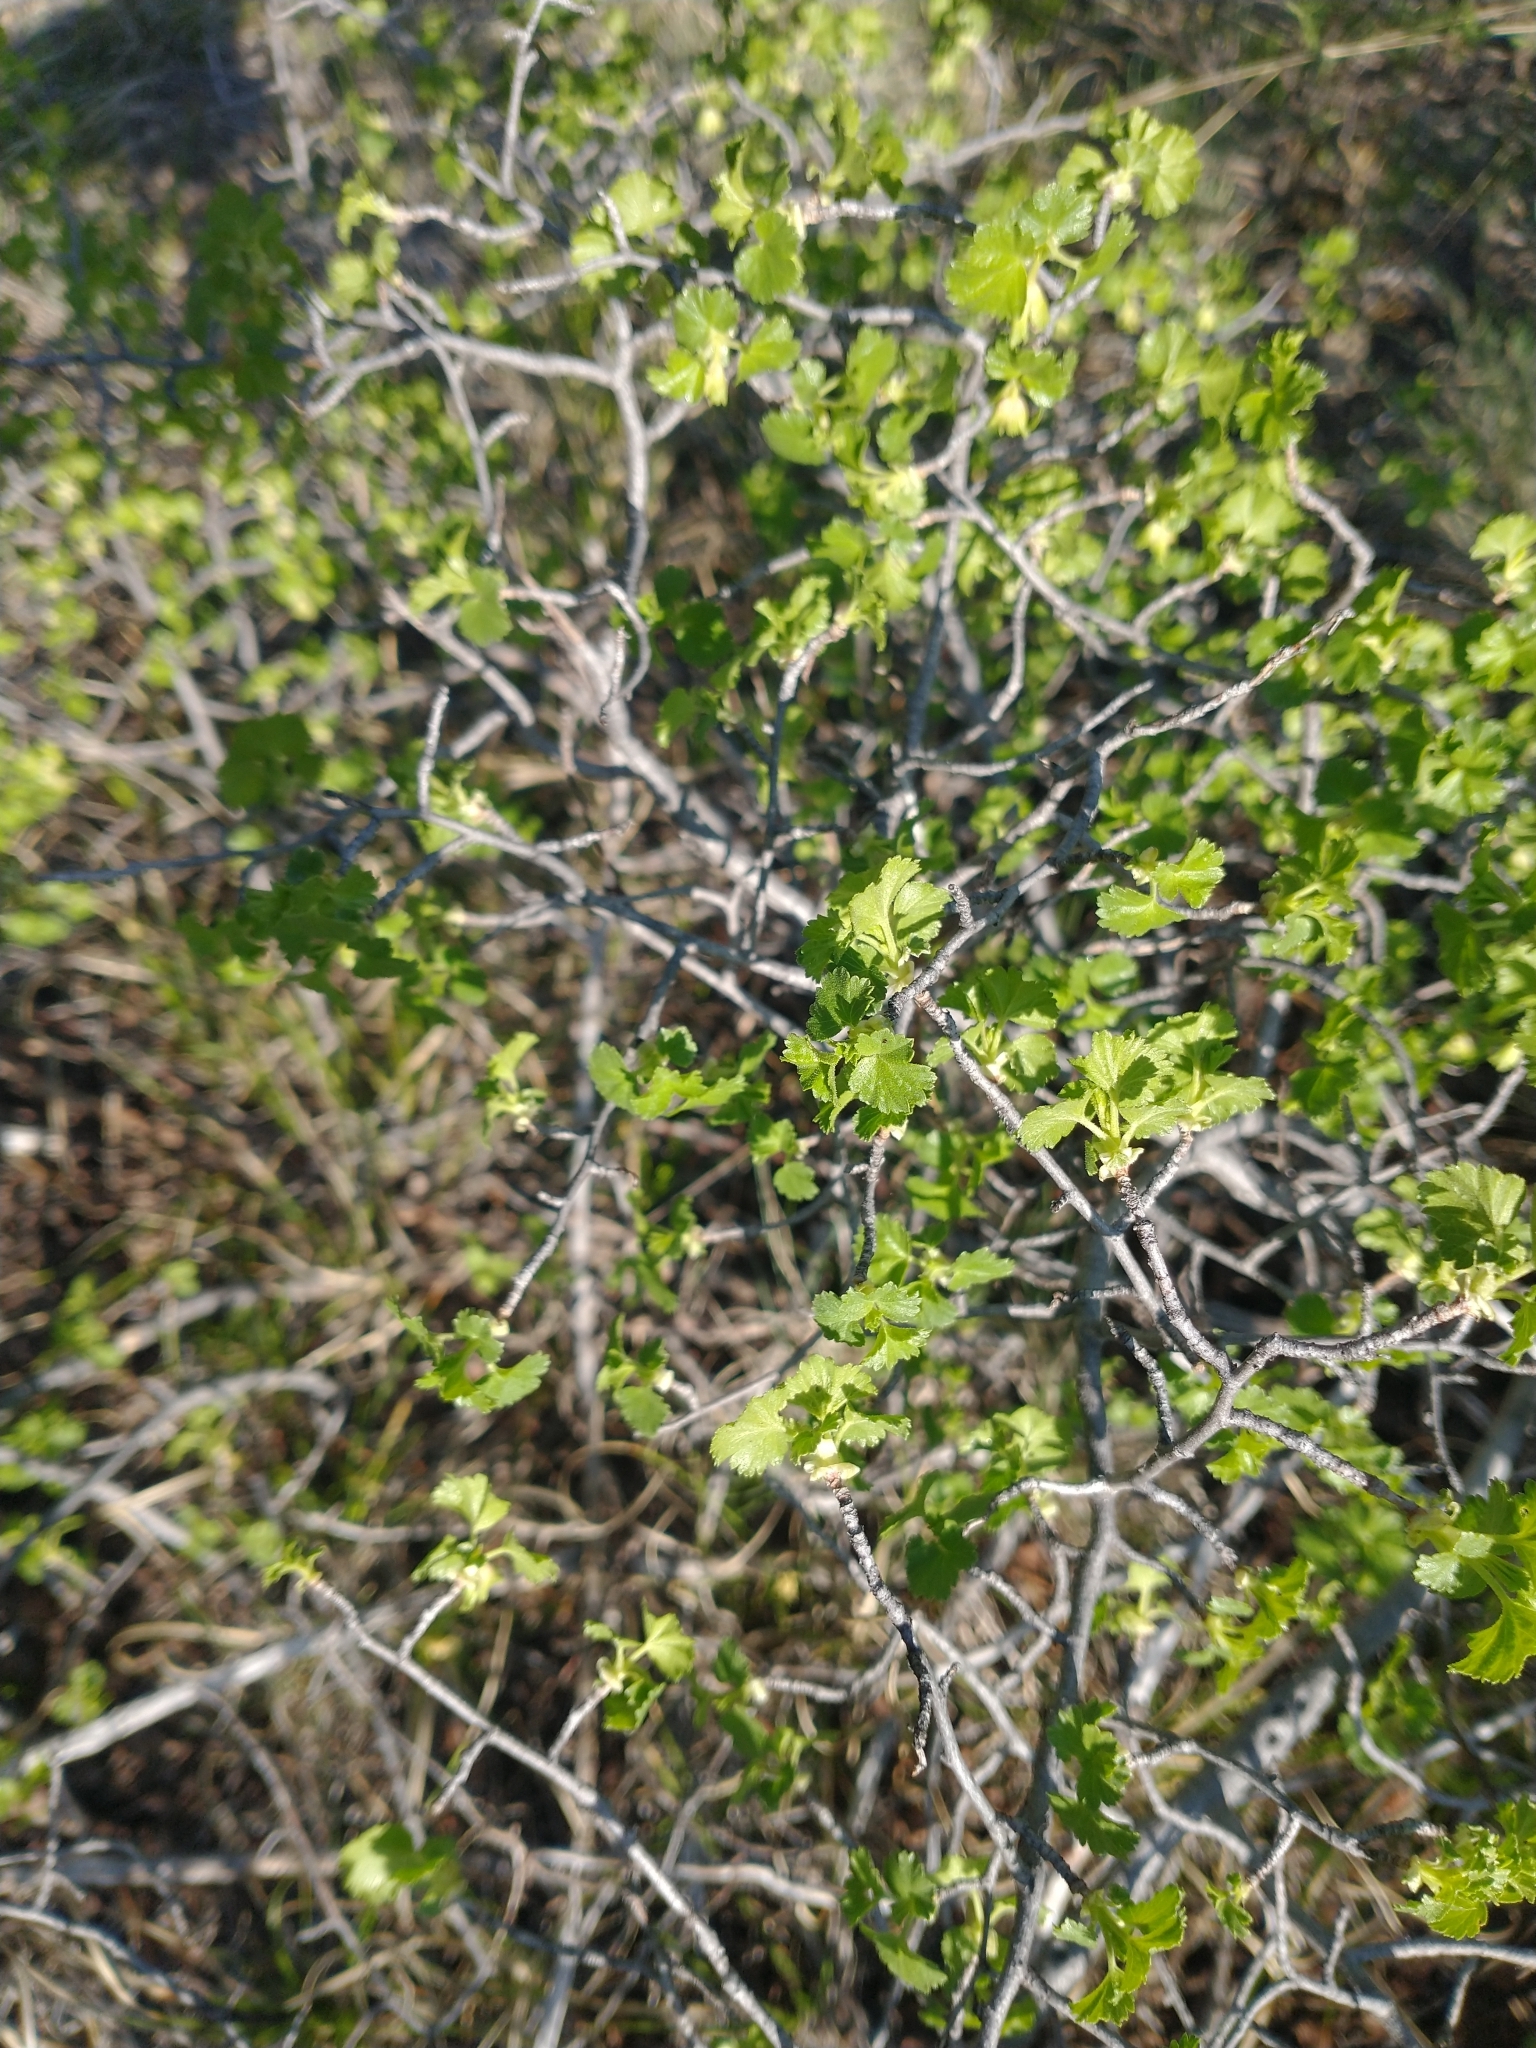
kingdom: Plantae
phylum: Tracheophyta
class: Magnoliopsida
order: Saxifragales
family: Grossulariaceae
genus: Ribes
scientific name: Ribes cereum
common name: Wax currant
